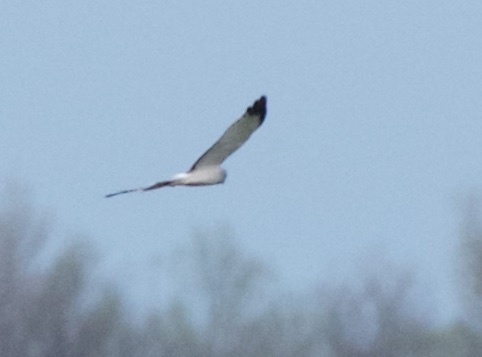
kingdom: Animalia
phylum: Chordata
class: Aves
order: Accipitriformes
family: Accipitridae
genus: Circus
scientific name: Circus cyaneus
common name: Hen harrier
